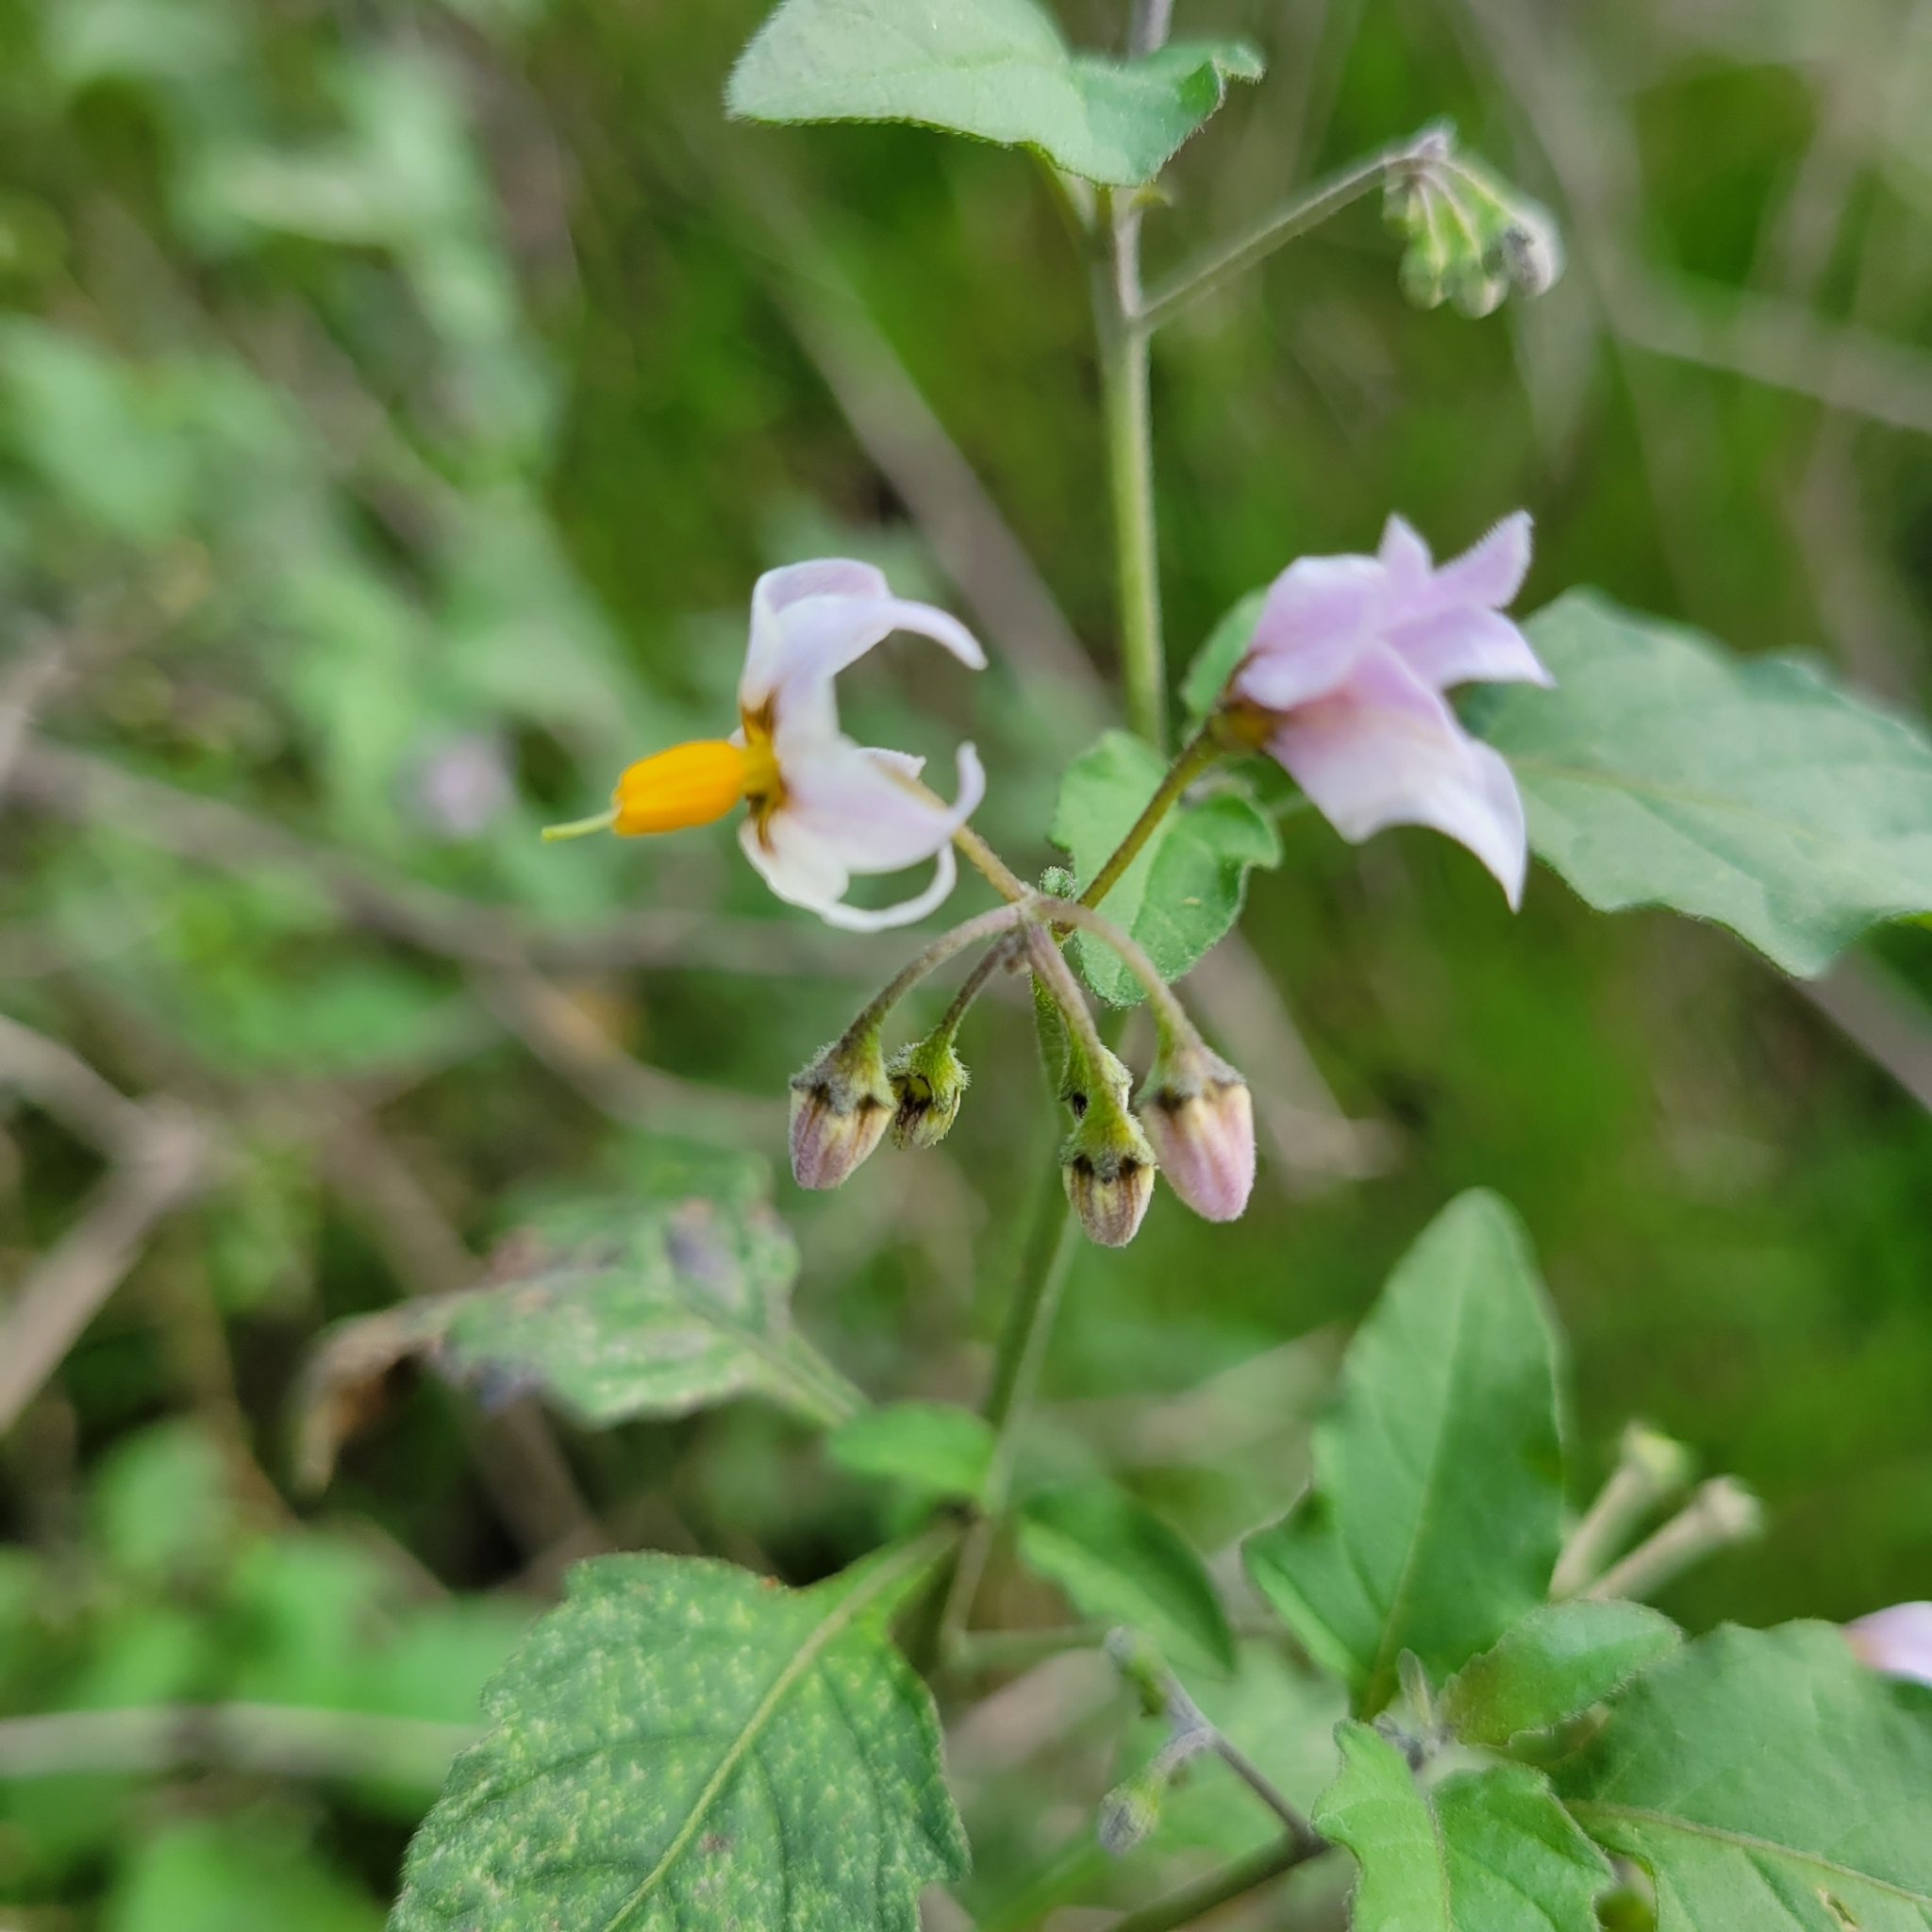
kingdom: Plantae
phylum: Tracheophyta
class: Magnoliopsida
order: Solanales
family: Solanaceae
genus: Solanum
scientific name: Solanum douglasii
